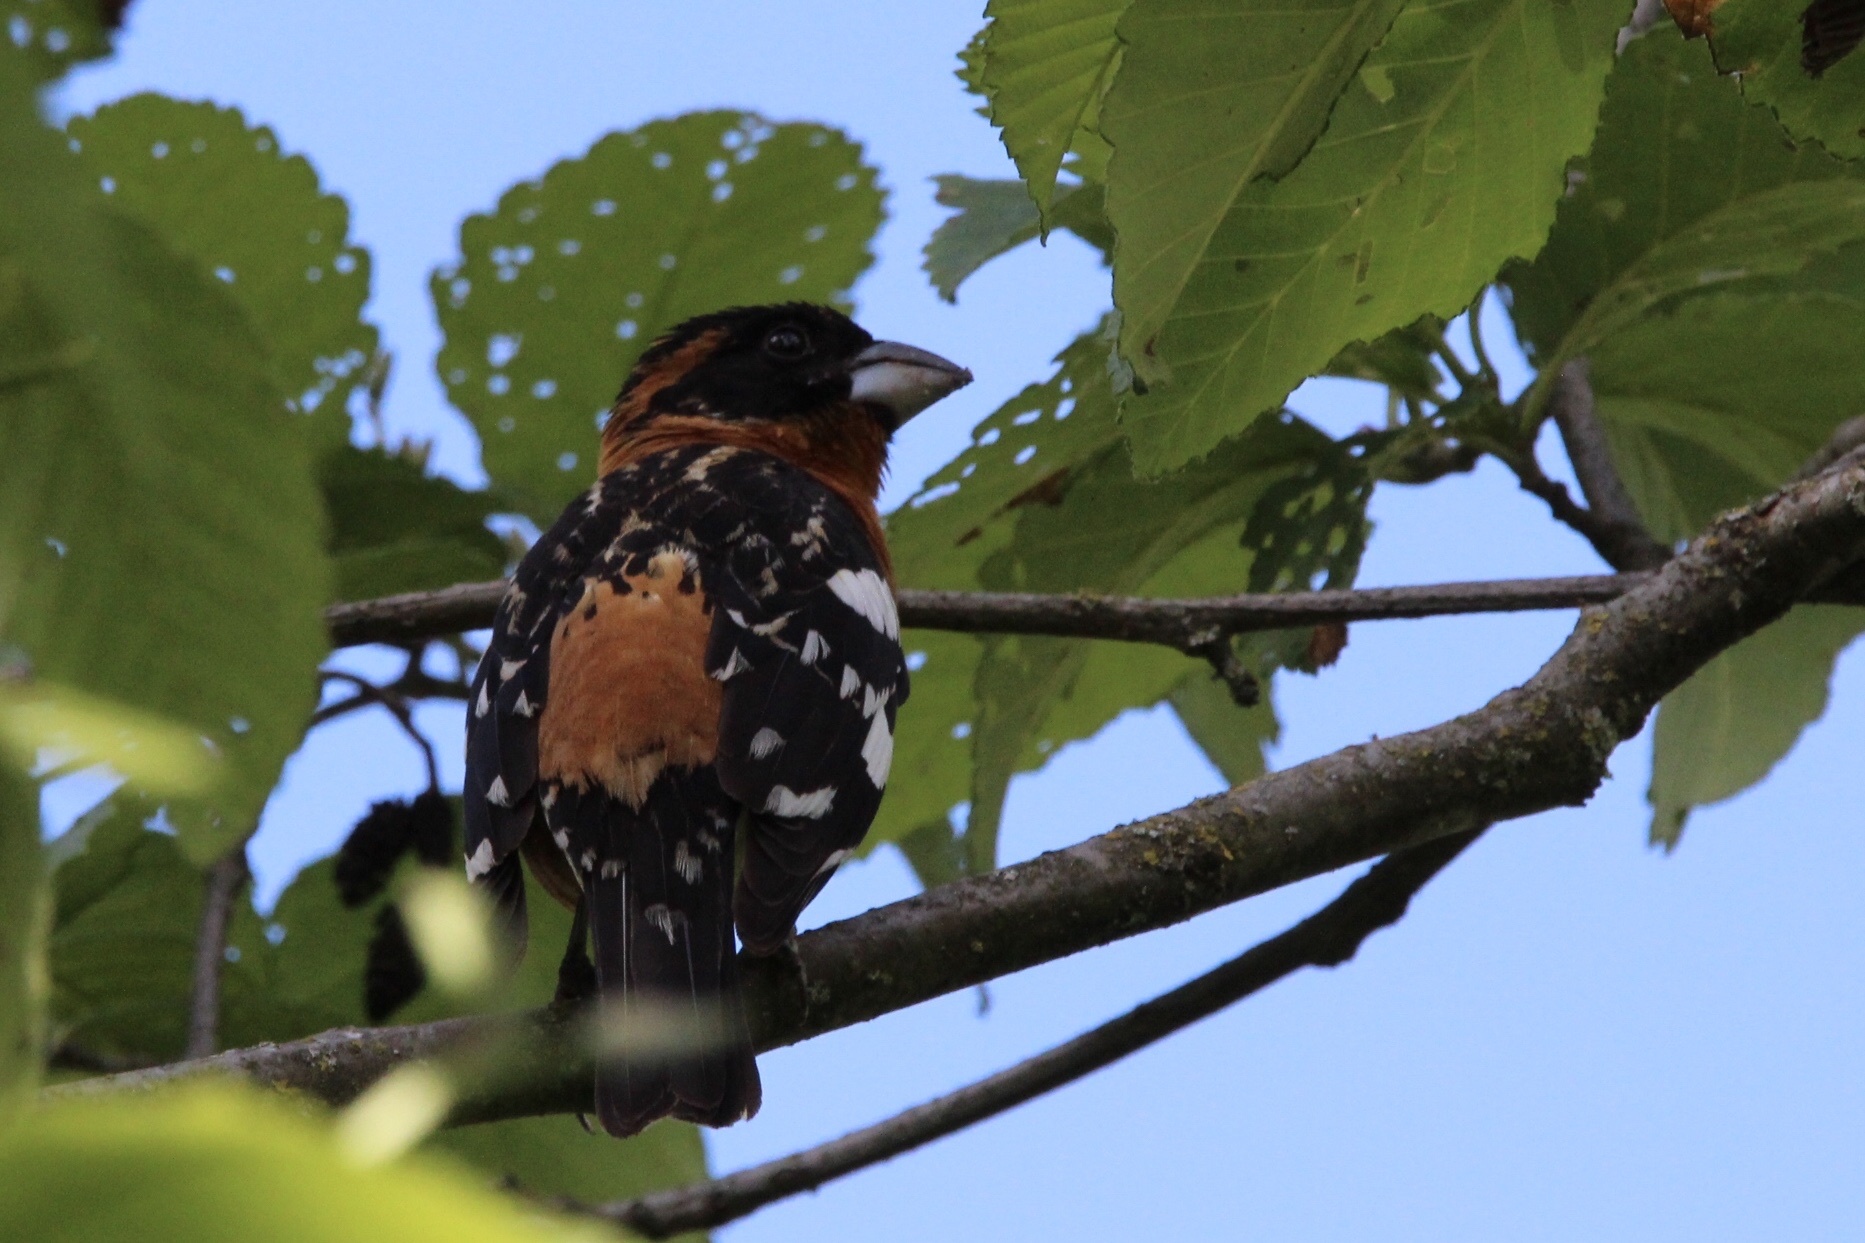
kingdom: Animalia
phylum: Chordata
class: Aves
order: Passeriformes
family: Cardinalidae
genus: Pheucticus
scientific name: Pheucticus melanocephalus
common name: Black-headed grosbeak
